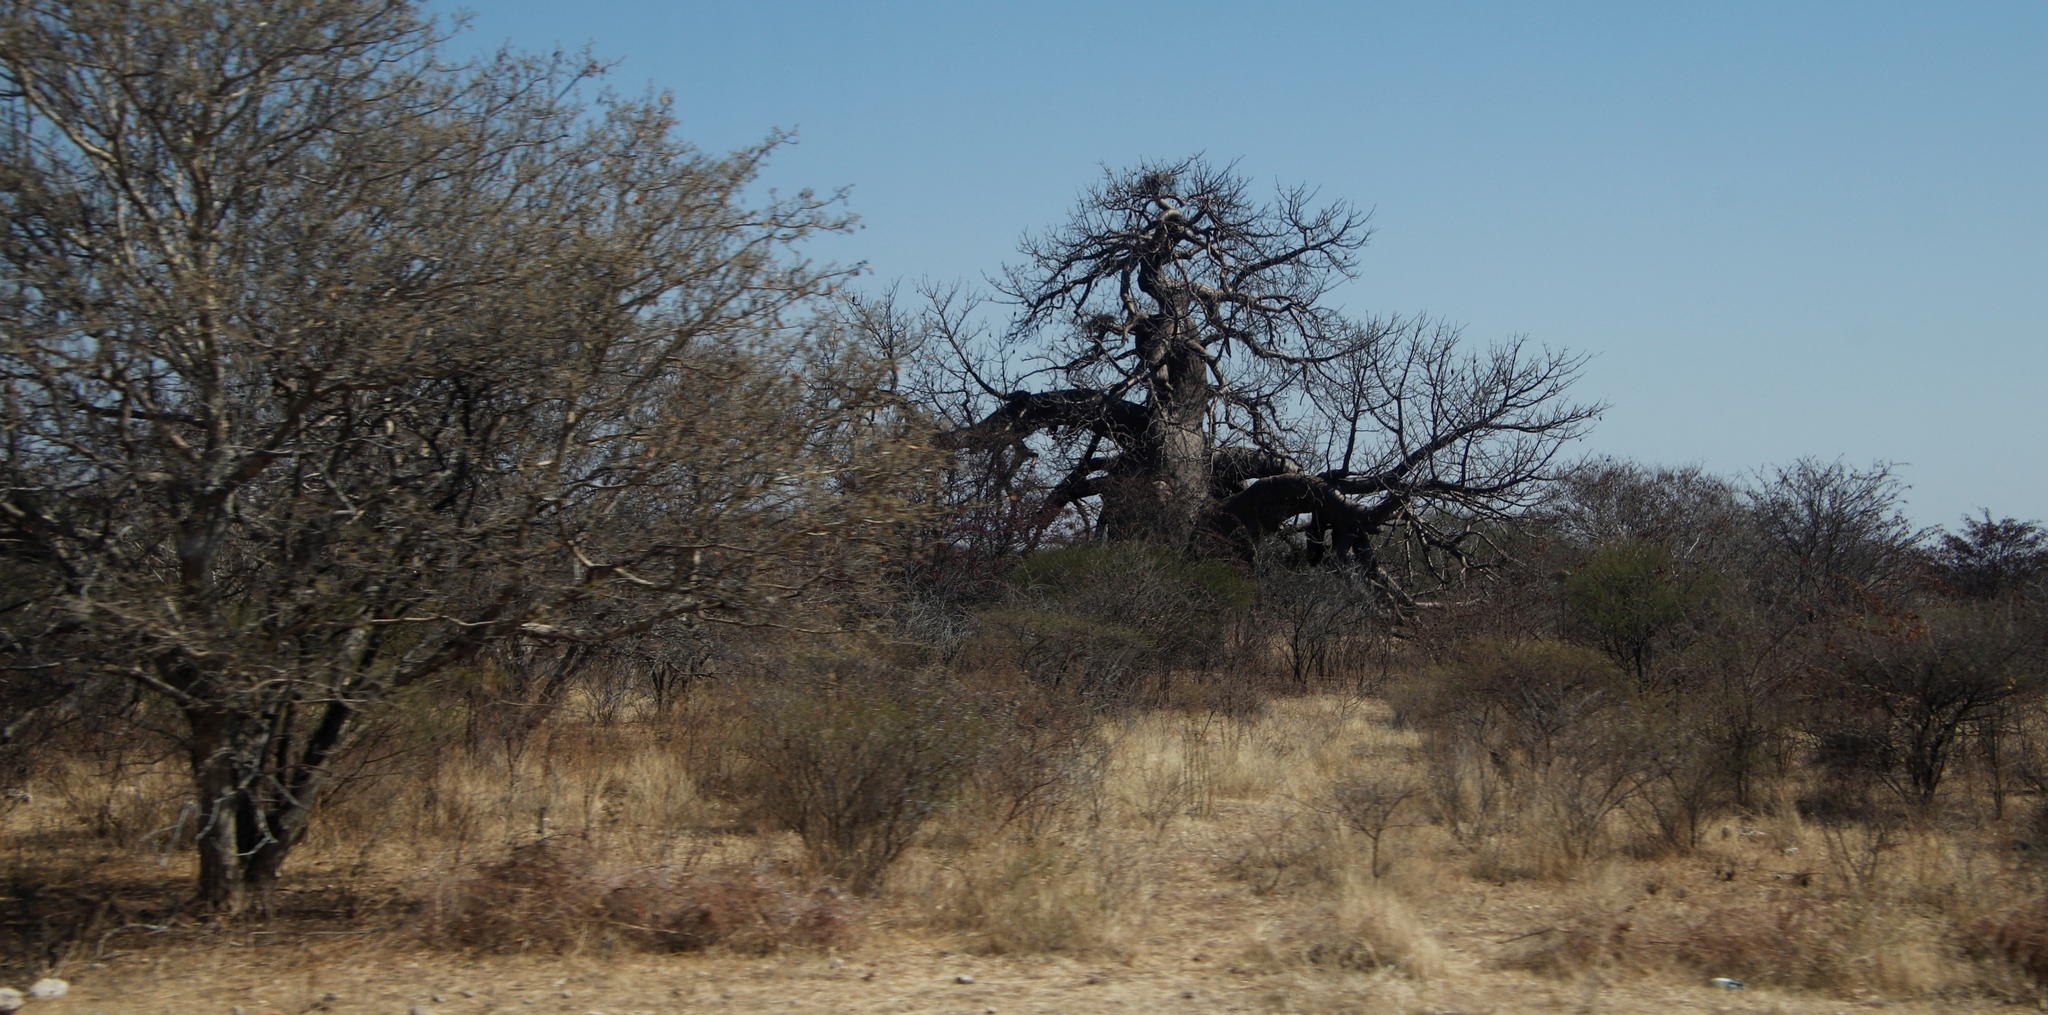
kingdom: Plantae
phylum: Tracheophyta
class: Magnoliopsida
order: Malvales
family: Malvaceae
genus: Adansonia
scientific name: Adansonia digitata
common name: Dead-rat-tree
